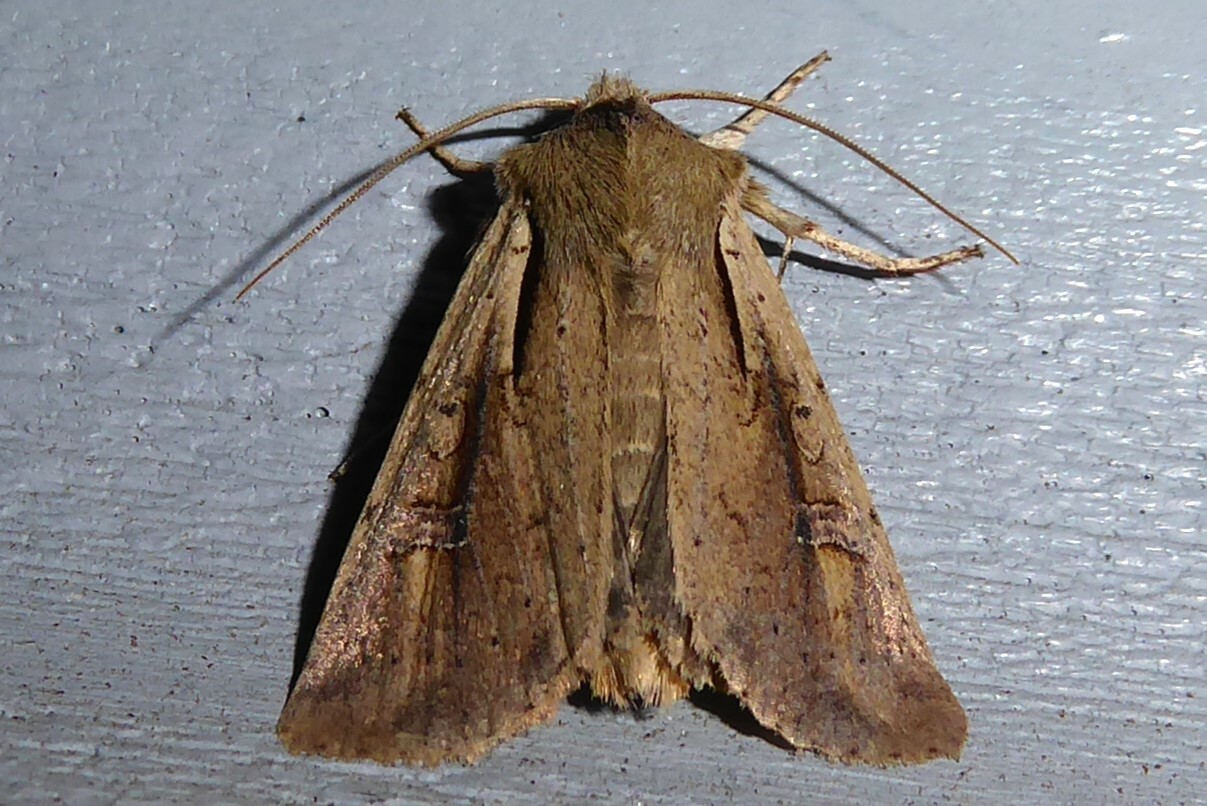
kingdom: Animalia
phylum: Arthropoda
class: Insecta
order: Lepidoptera
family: Noctuidae
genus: Ichneutica
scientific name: Ichneutica atristriga
